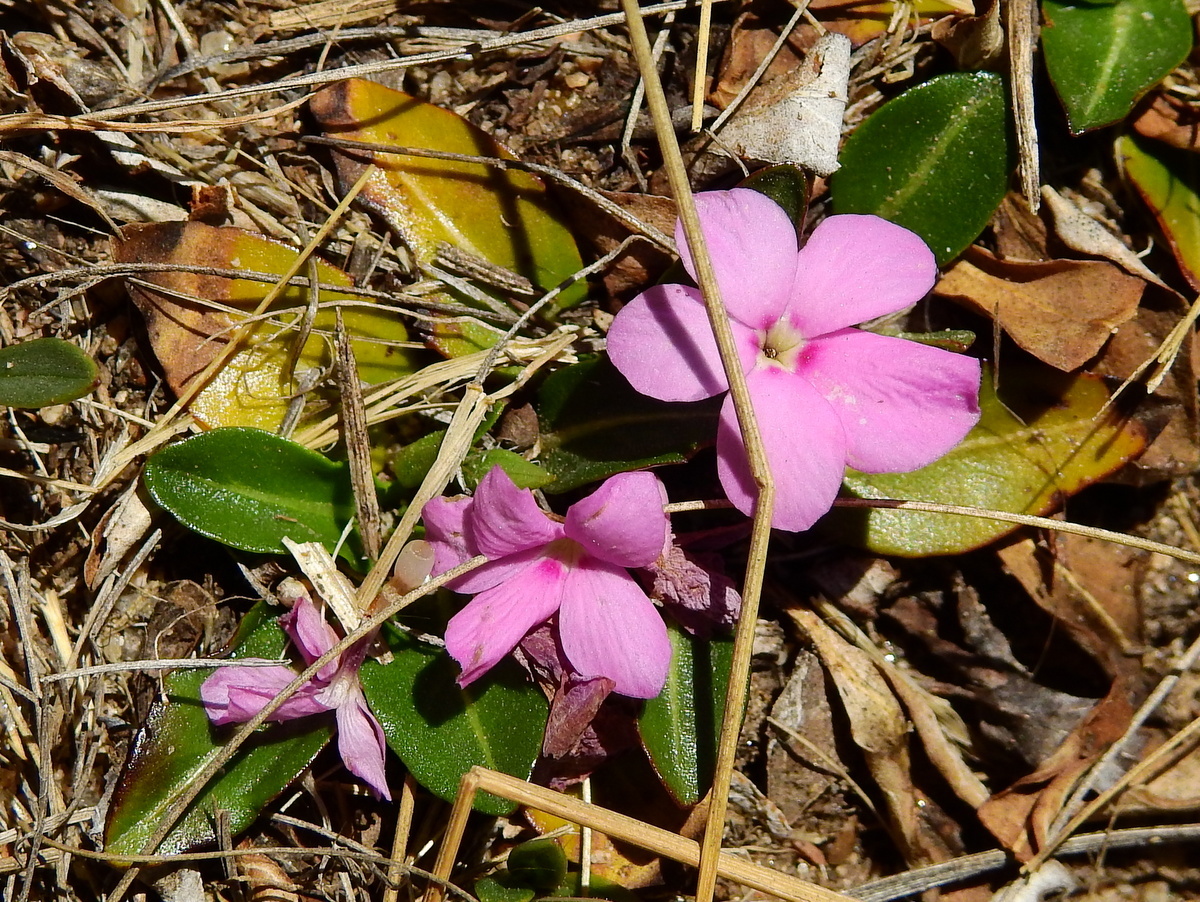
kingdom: Plantae
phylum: Tracheophyta
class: Magnoliopsida
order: Lamiales
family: Acanthaceae
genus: Stenandrium
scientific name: Stenandrium dulce
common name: Pinklet
